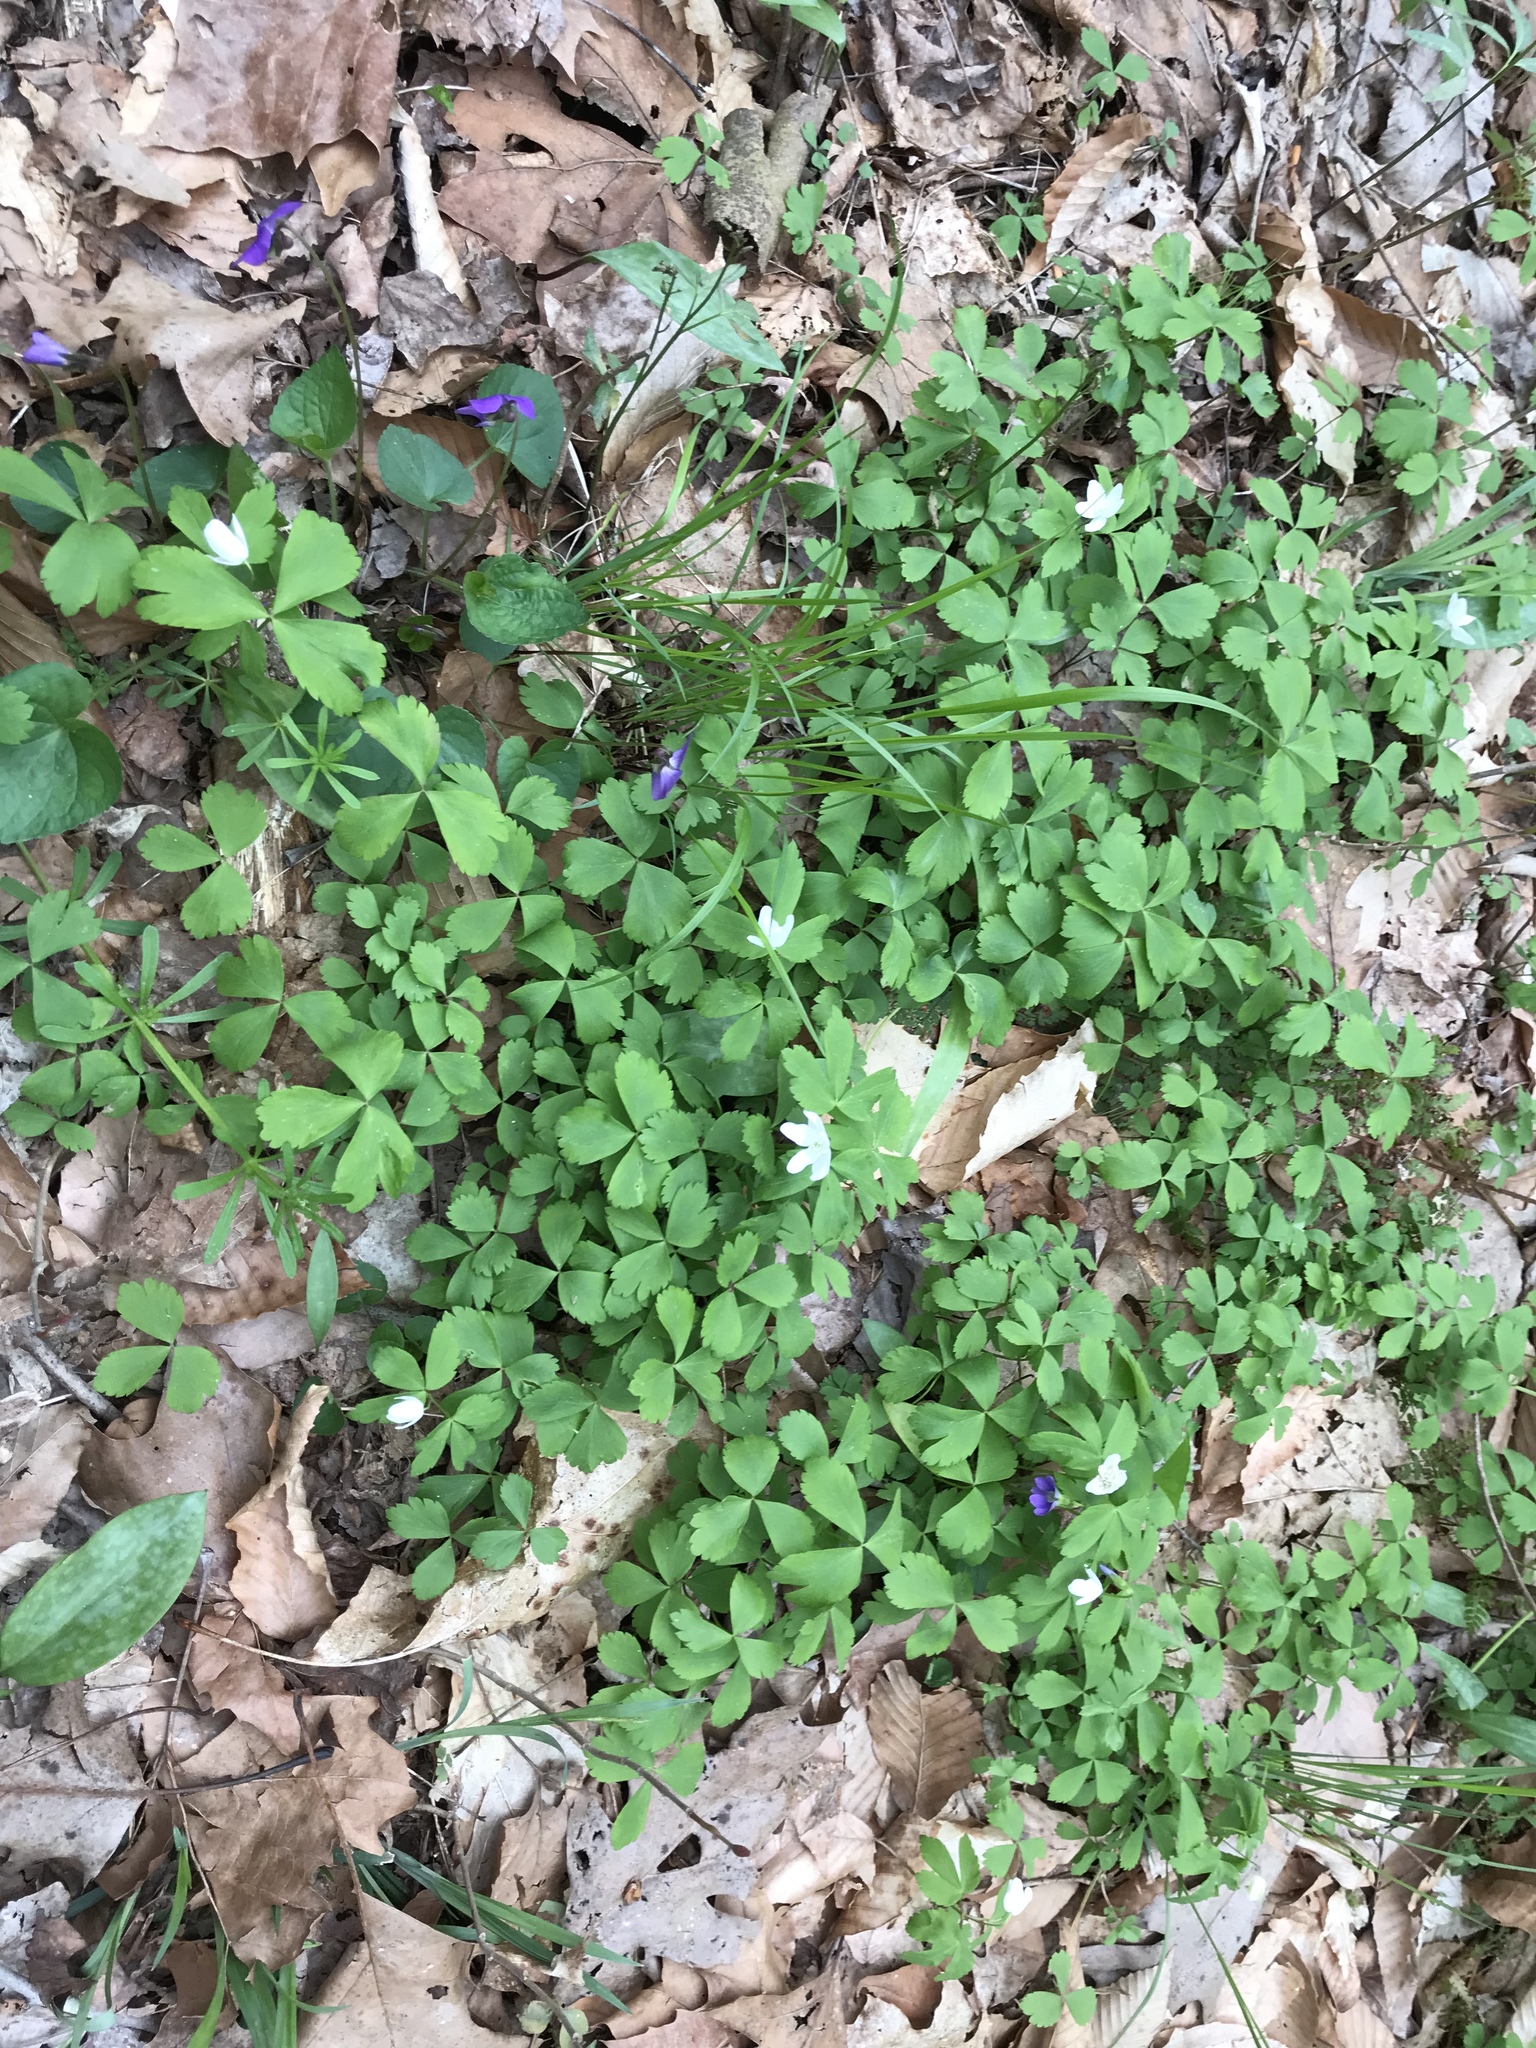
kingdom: Plantae
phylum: Tracheophyta
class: Magnoliopsida
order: Ranunculales
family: Ranunculaceae
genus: Anemone
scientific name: Anemone quinquefolia
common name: Wood anemone
